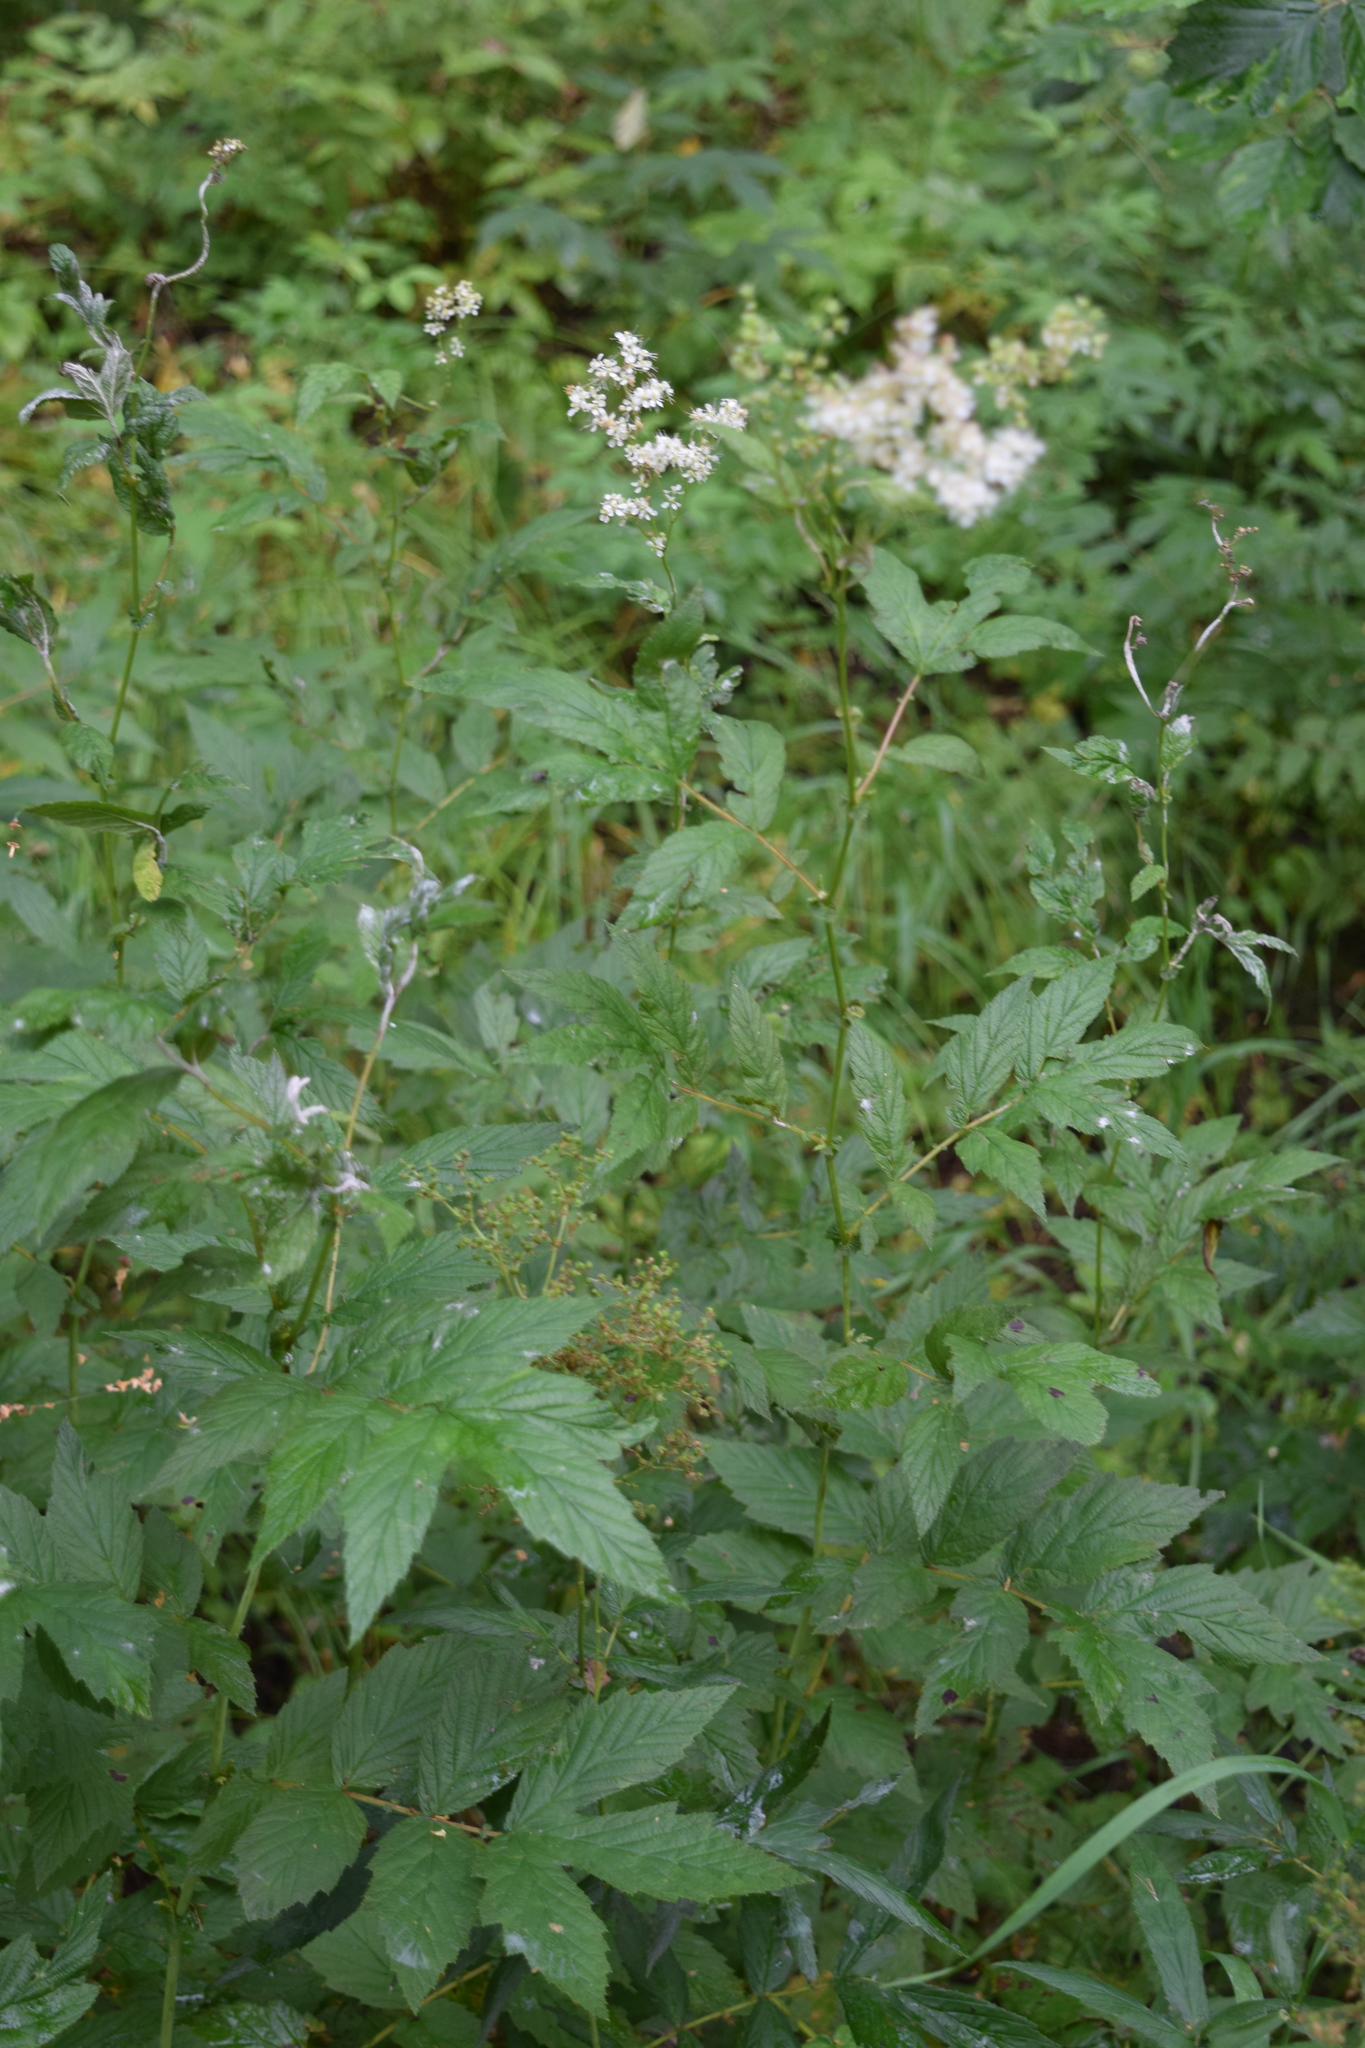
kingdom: Plantae
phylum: Tracheophyta
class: Magnoliopsida
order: Rosales
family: Rosaceae
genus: Filipendula
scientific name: Filipendula ulmaria
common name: Meadowsweet
